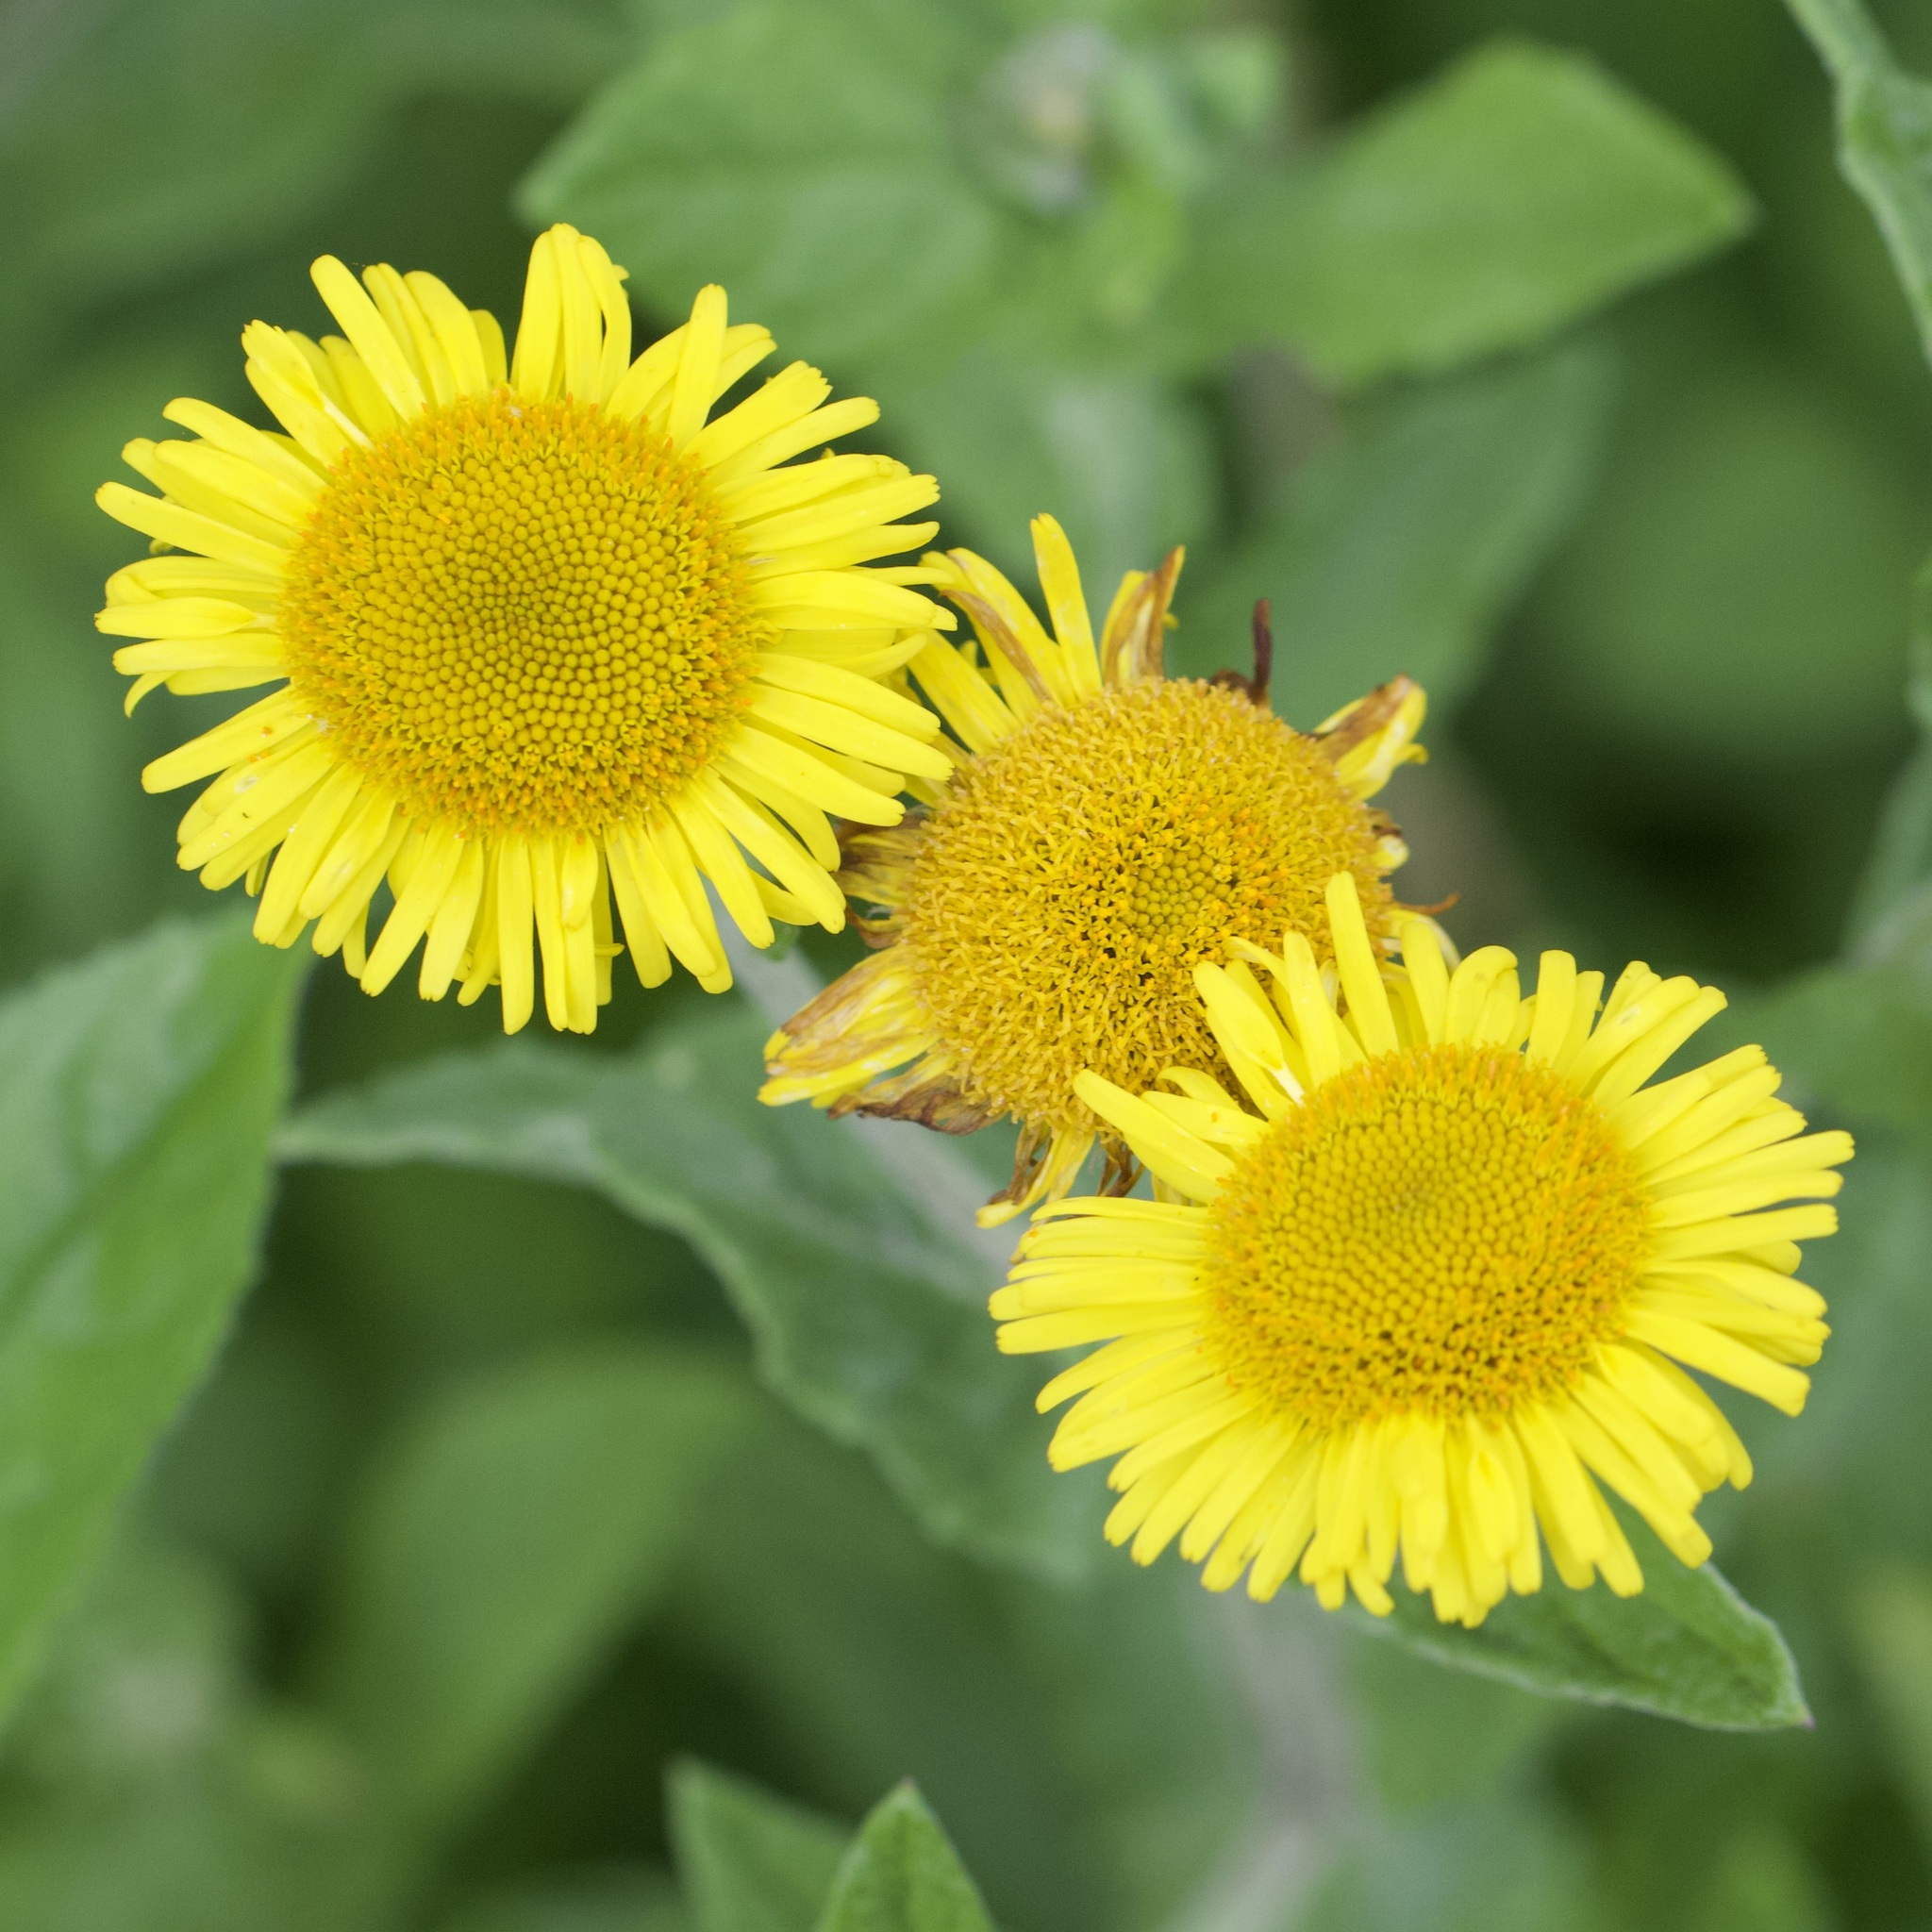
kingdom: Plantae
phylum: Tracheophyta
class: Magnoliopsida
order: Asterales
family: Asteraceae
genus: Pulicaria
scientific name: Pulicaria dysenterica
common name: Common fleabane
